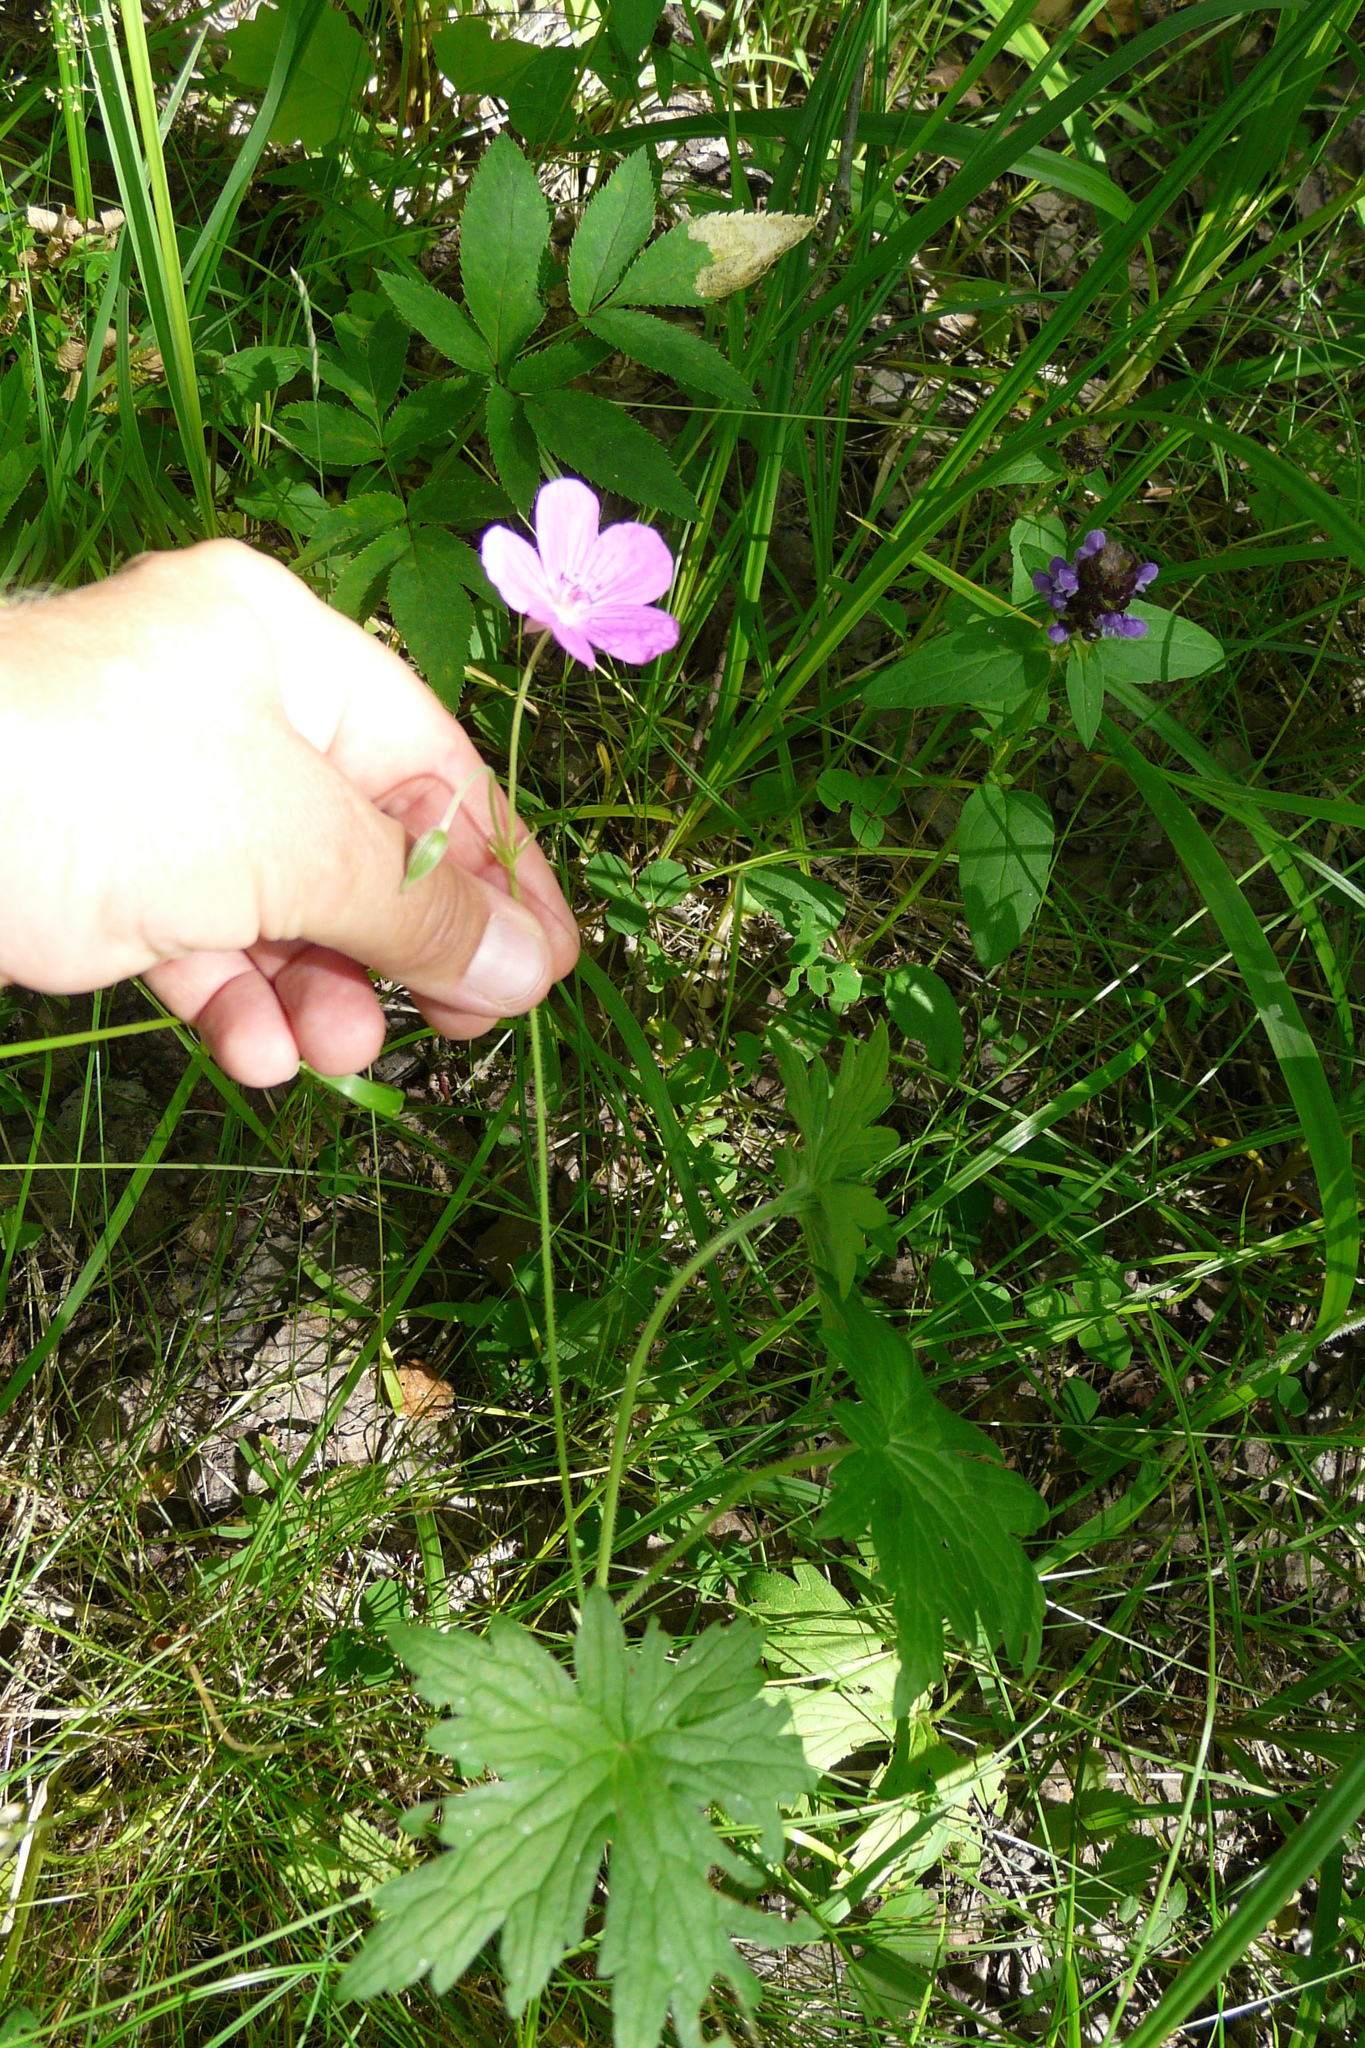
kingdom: Plantae
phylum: Tracheophyta
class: Magnoliopsida
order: Geraniales
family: Geraniaceae
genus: Geranium
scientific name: Geranium palustre
